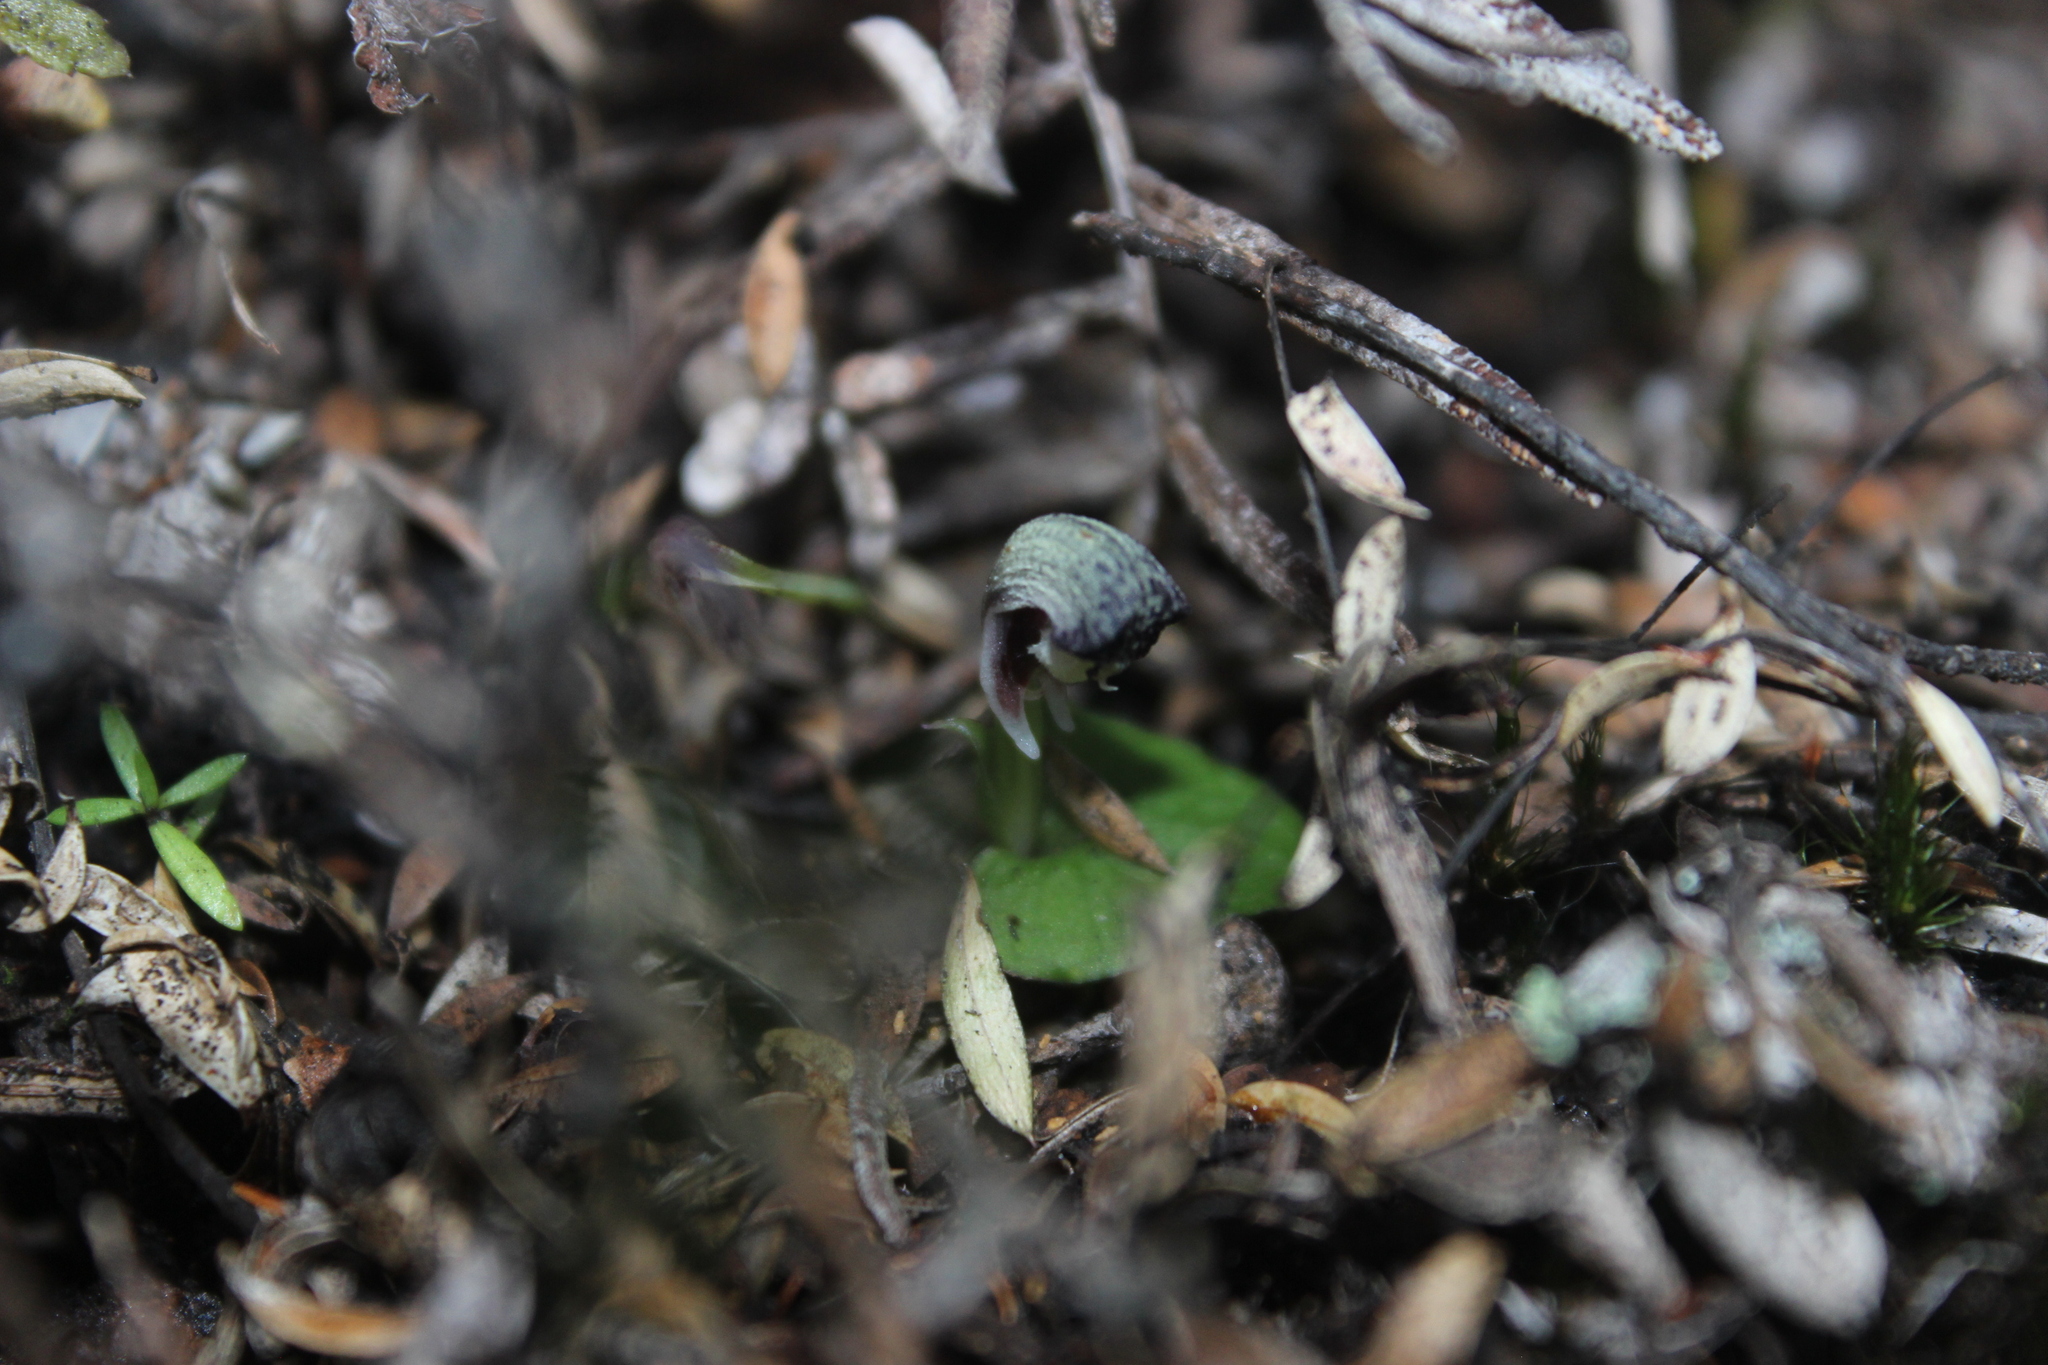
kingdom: Plantae
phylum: Tracheophyta
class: Liliopsida
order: Asparagales
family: Orchidaceae
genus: Corybas
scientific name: Corybas cheesemanii
